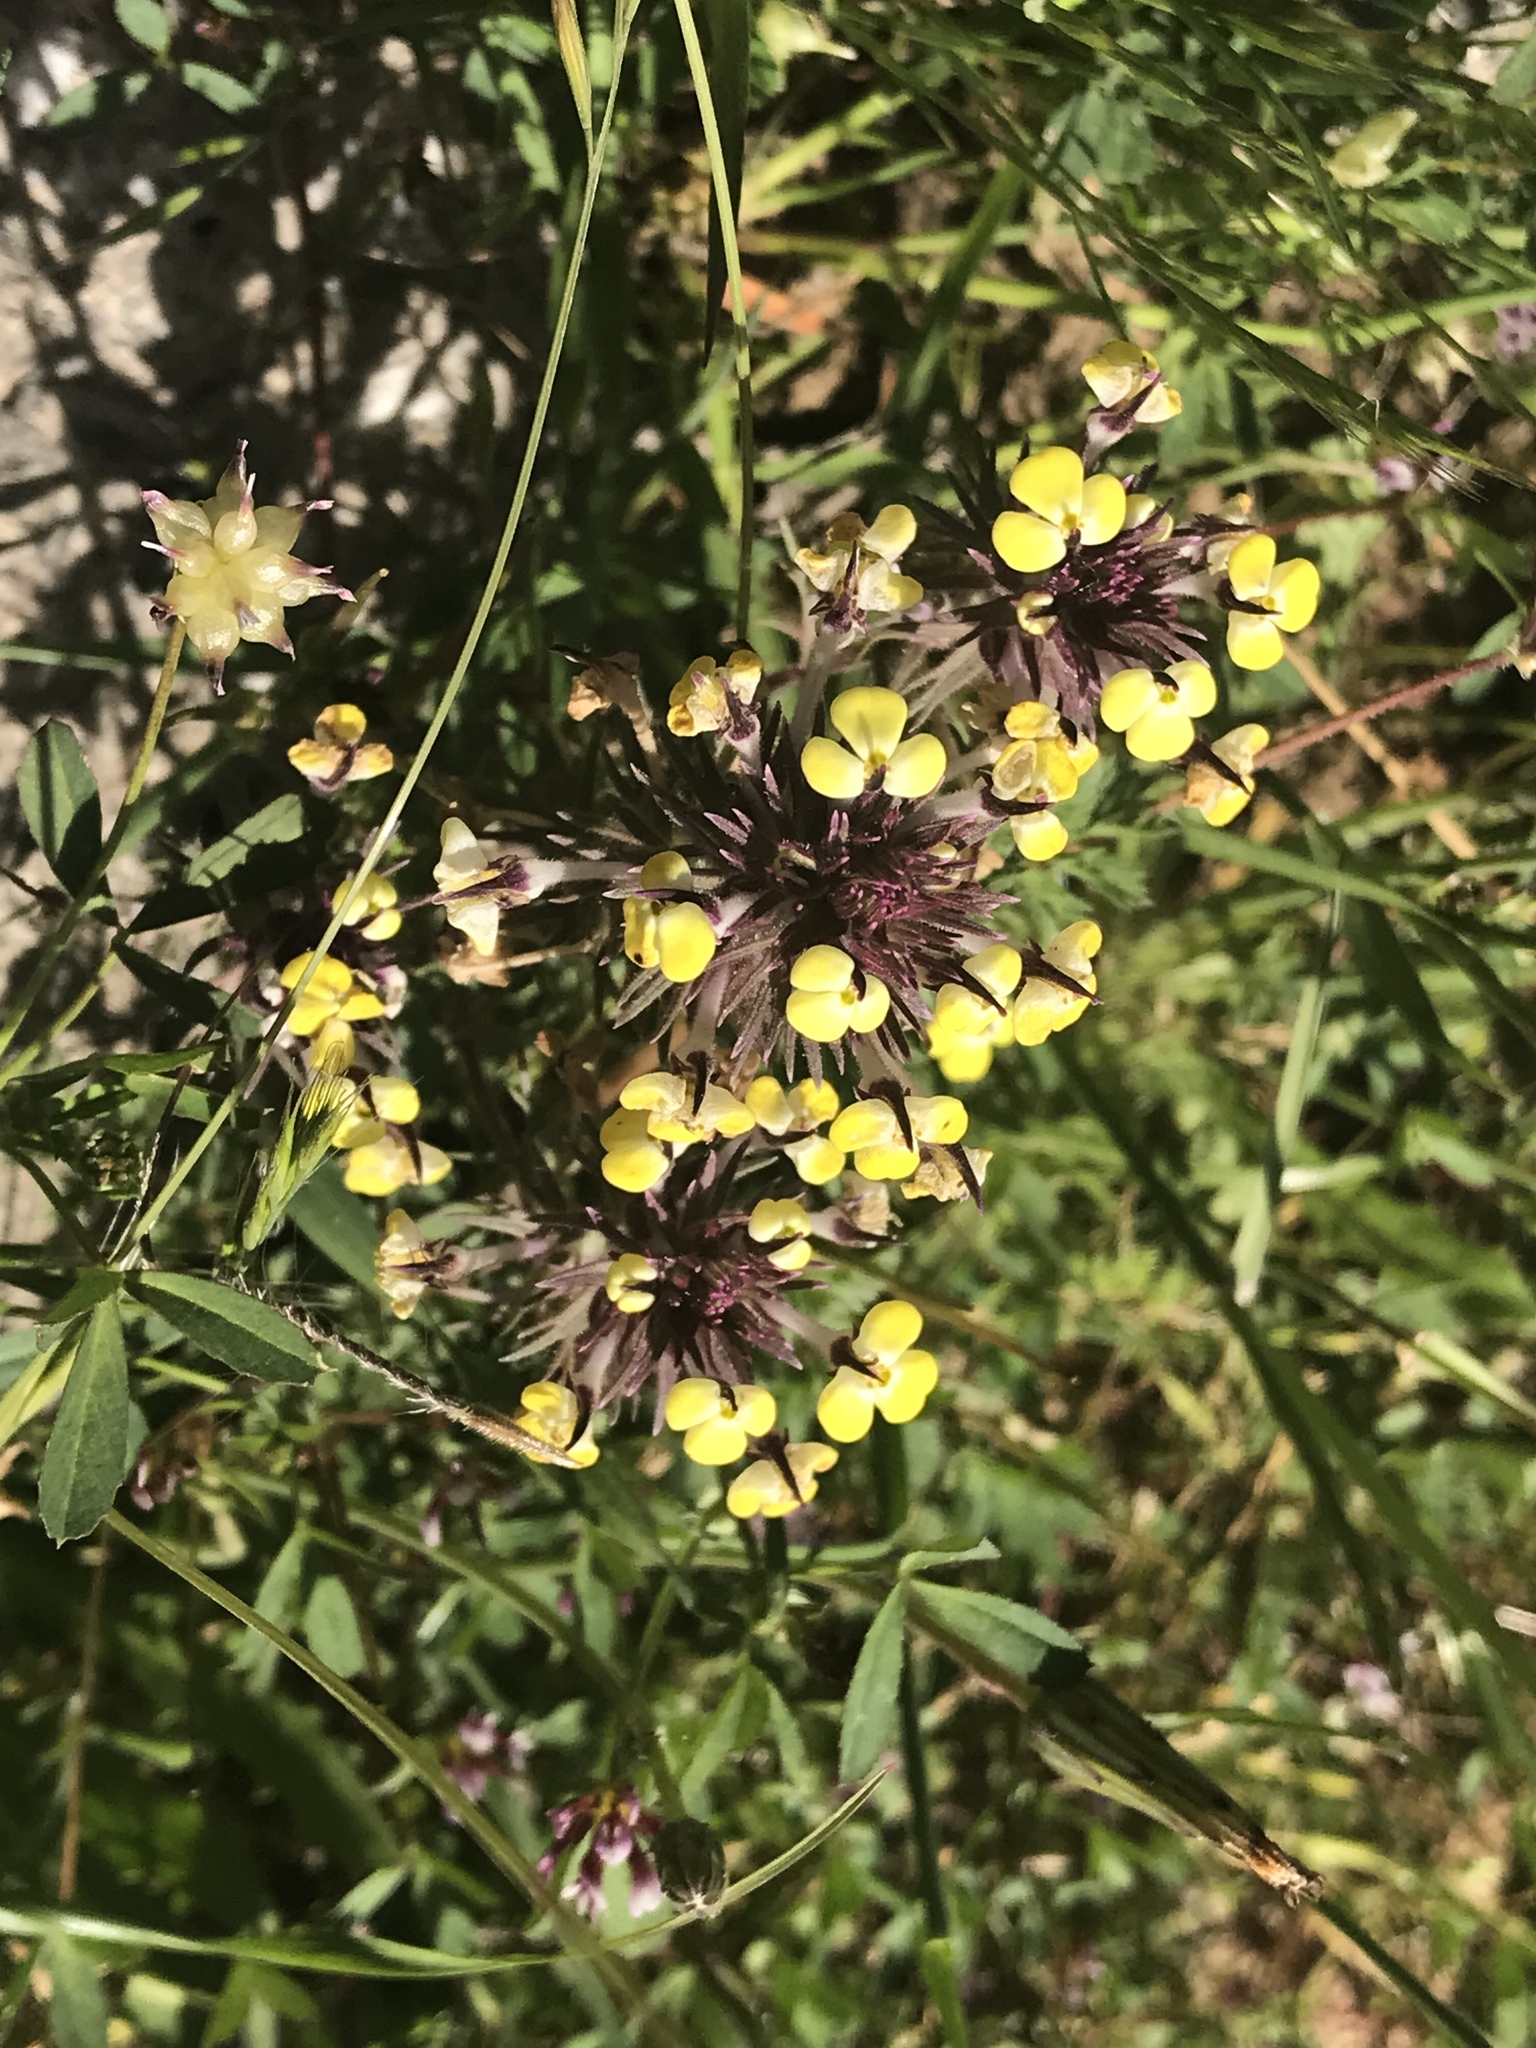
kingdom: Plantae
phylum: Tracheophyta
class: Magnoliopsida
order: Lamiales
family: Orobanchaceae
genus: Triphysaria
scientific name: Triphysaria eriantha
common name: Johnny-tuck
